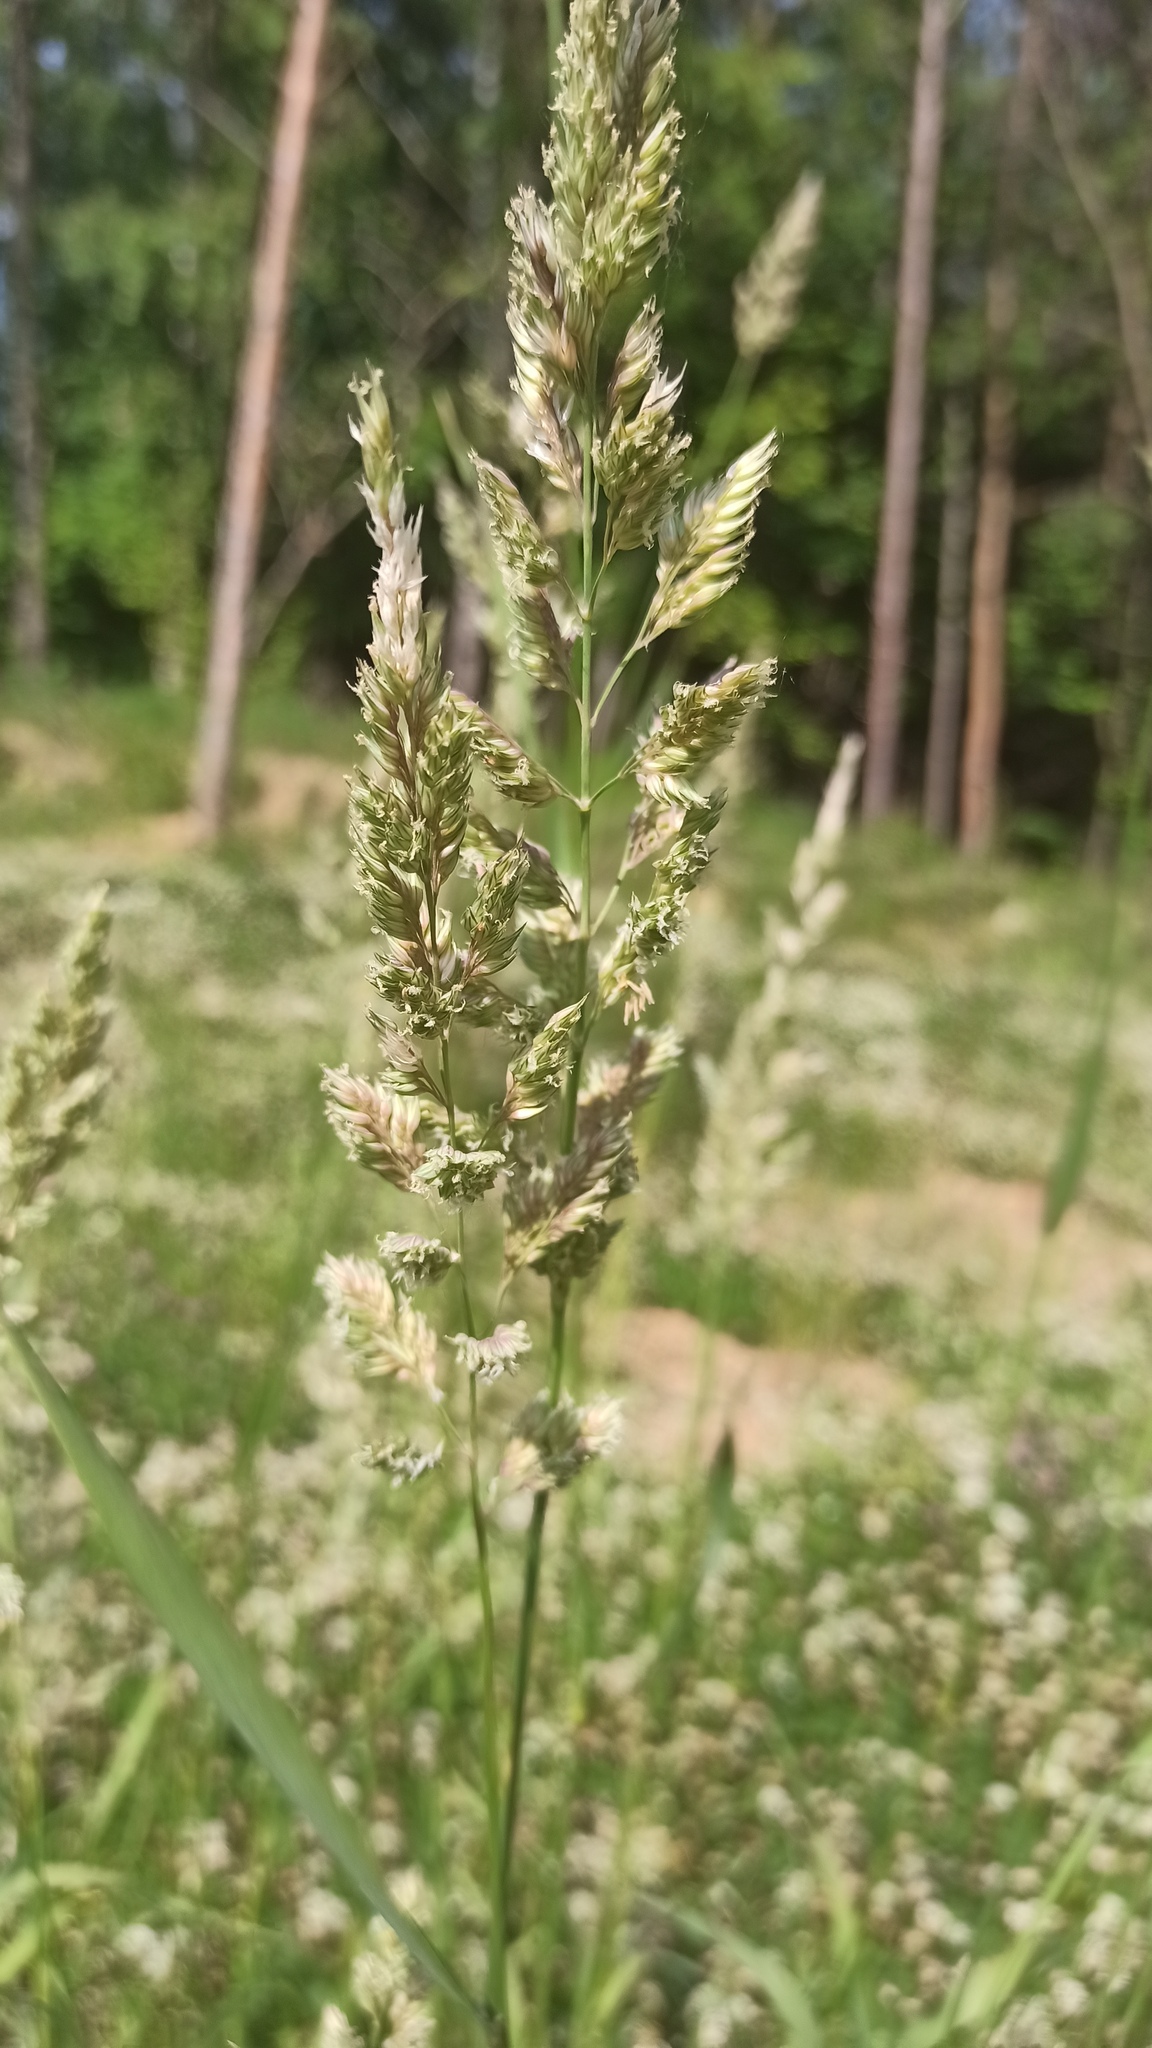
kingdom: Plantae
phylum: Tracheophyta
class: Liliopsida
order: Poales
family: Poaceae
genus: Phalaris
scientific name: Phalaris arundinacea
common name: Reed canary-grass
